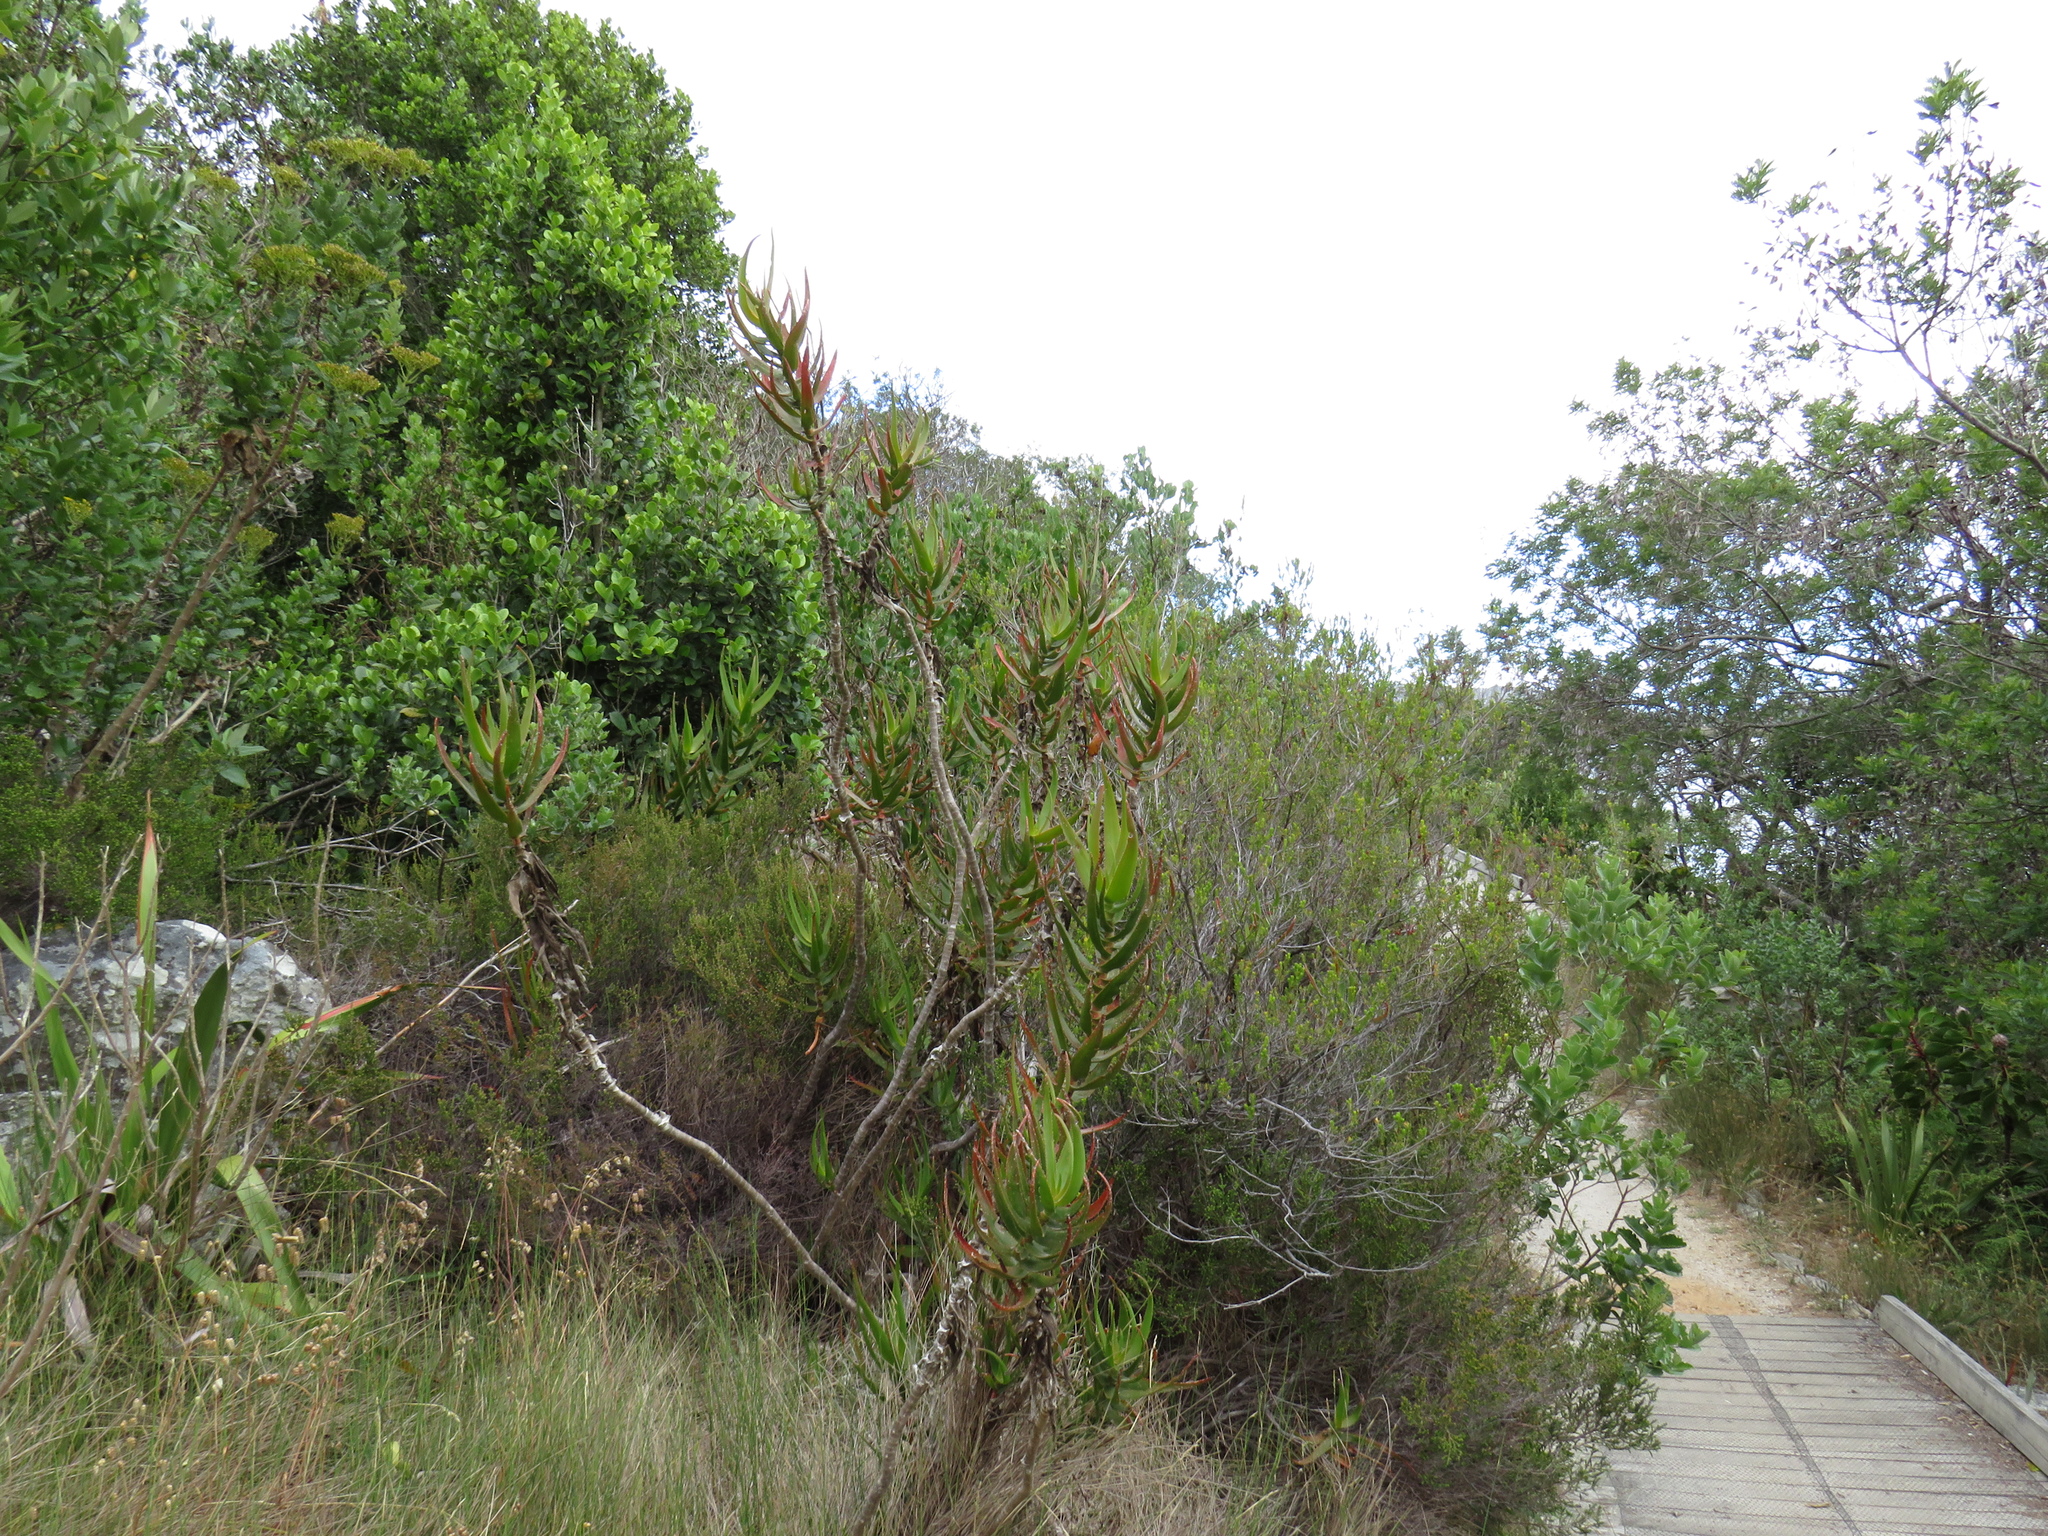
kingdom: Plantae
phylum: Tracheophyta
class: Liliopsida
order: Asparagales
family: Asphodelaceae
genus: Aloiampelos
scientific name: Aloiampelos gracilis
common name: Scrambling aloe
